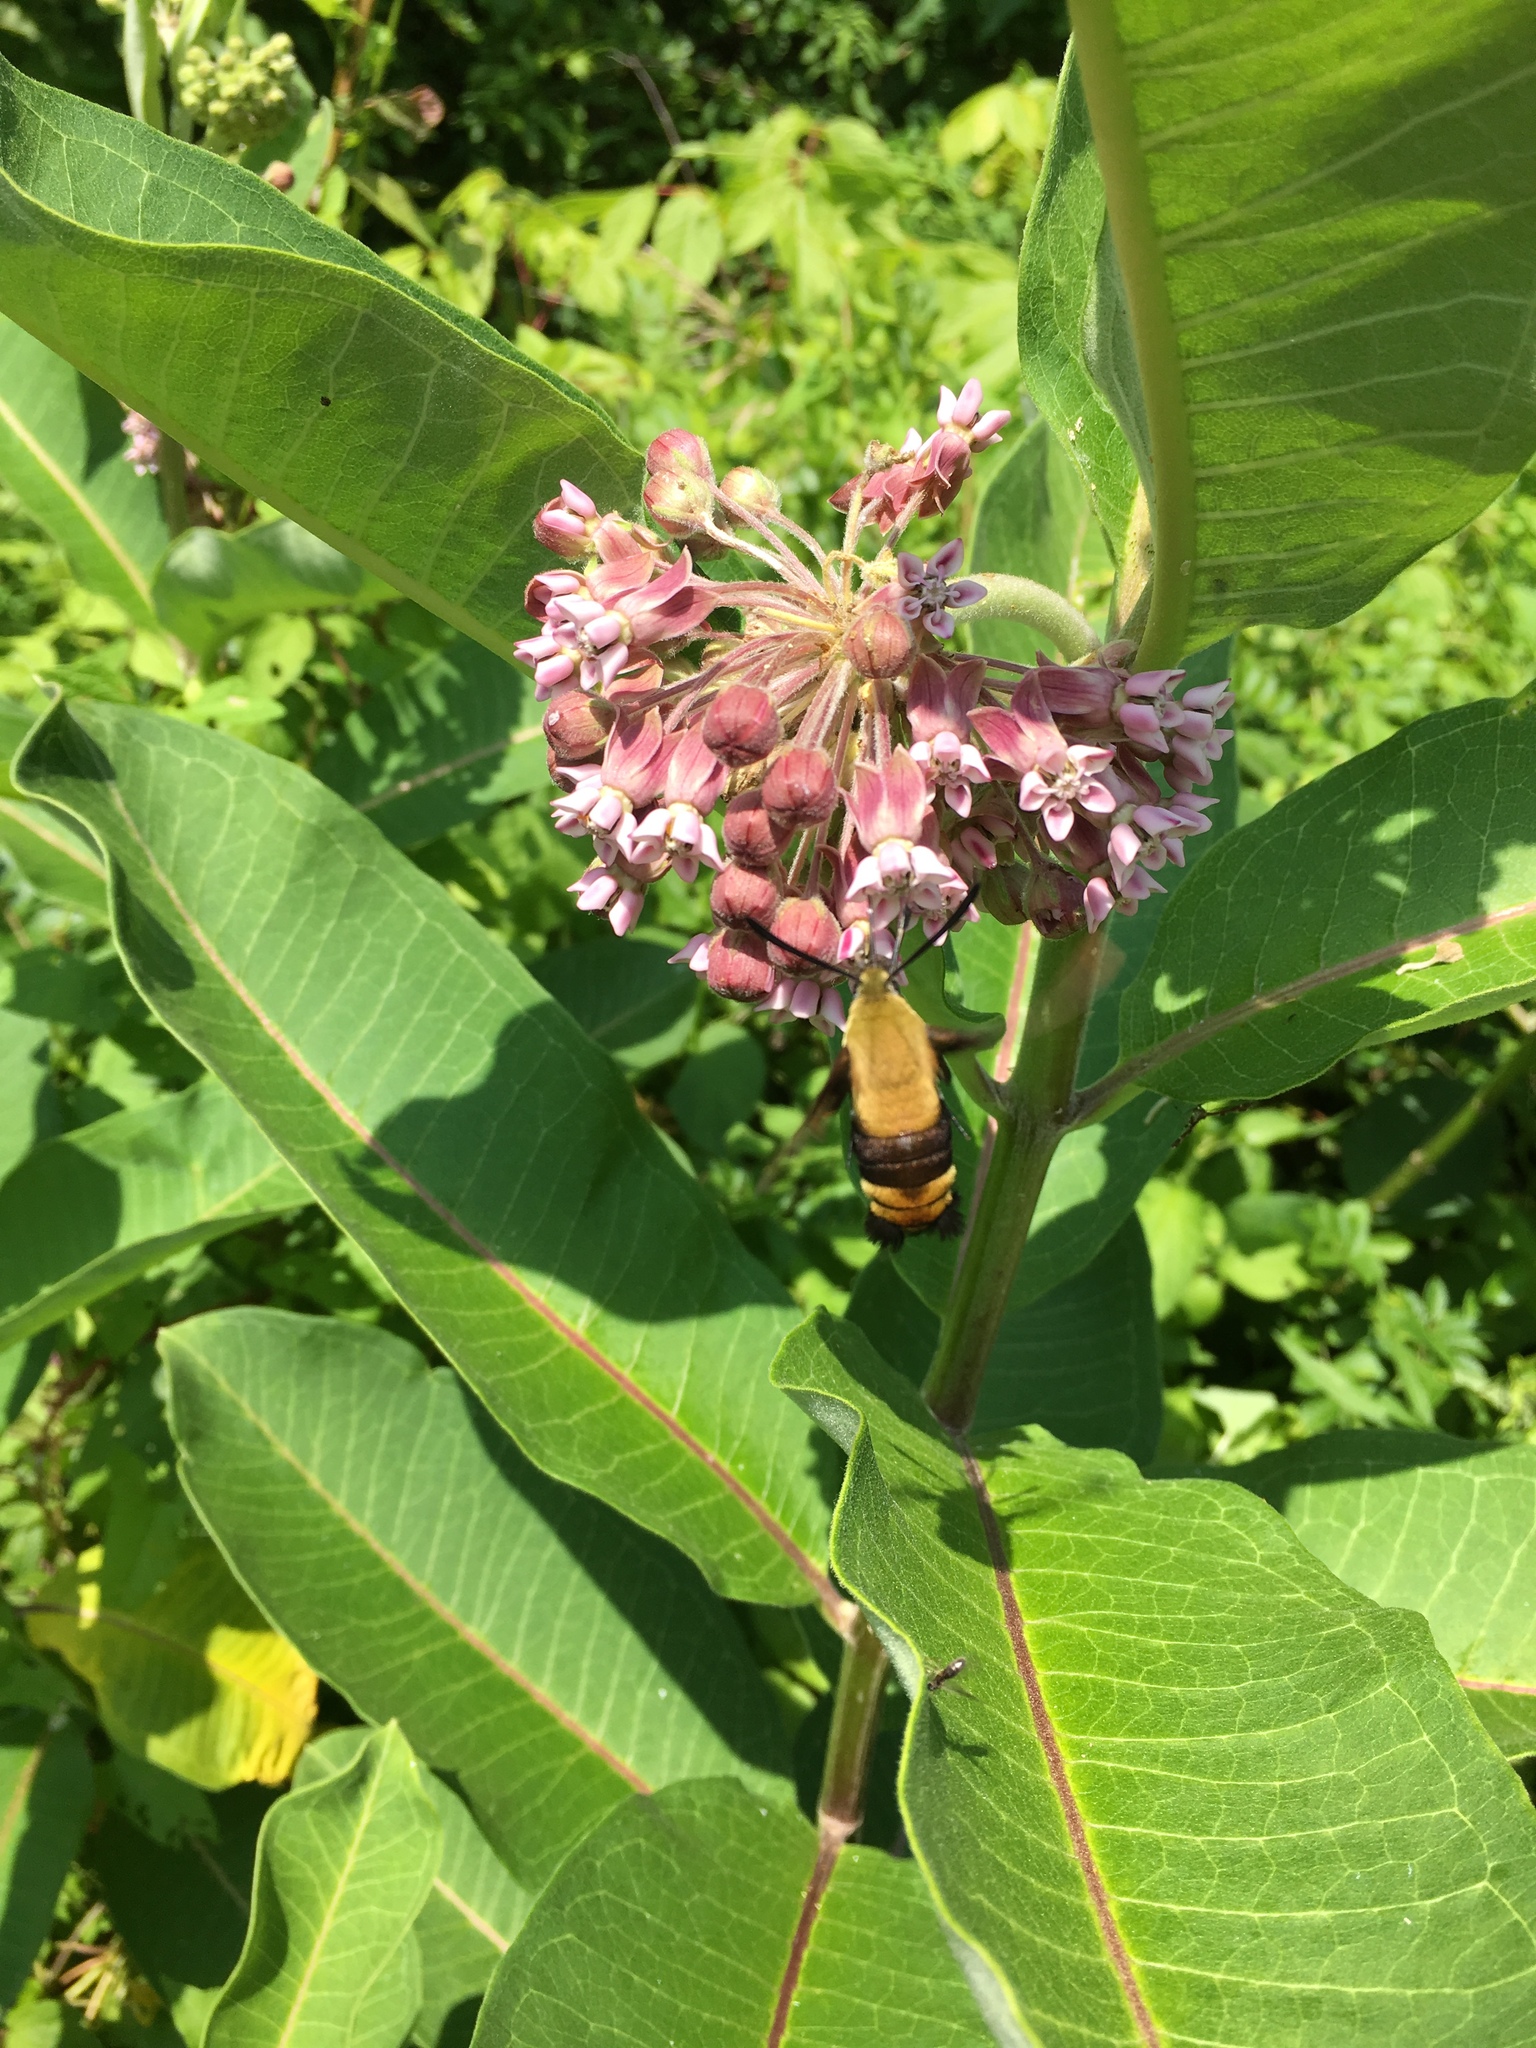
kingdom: Animalia
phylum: Arthropoda
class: Insecta
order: Lepidoptera
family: Sphingidae
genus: Hemaris
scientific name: Hemaris diffinis
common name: Bumblebee moth
